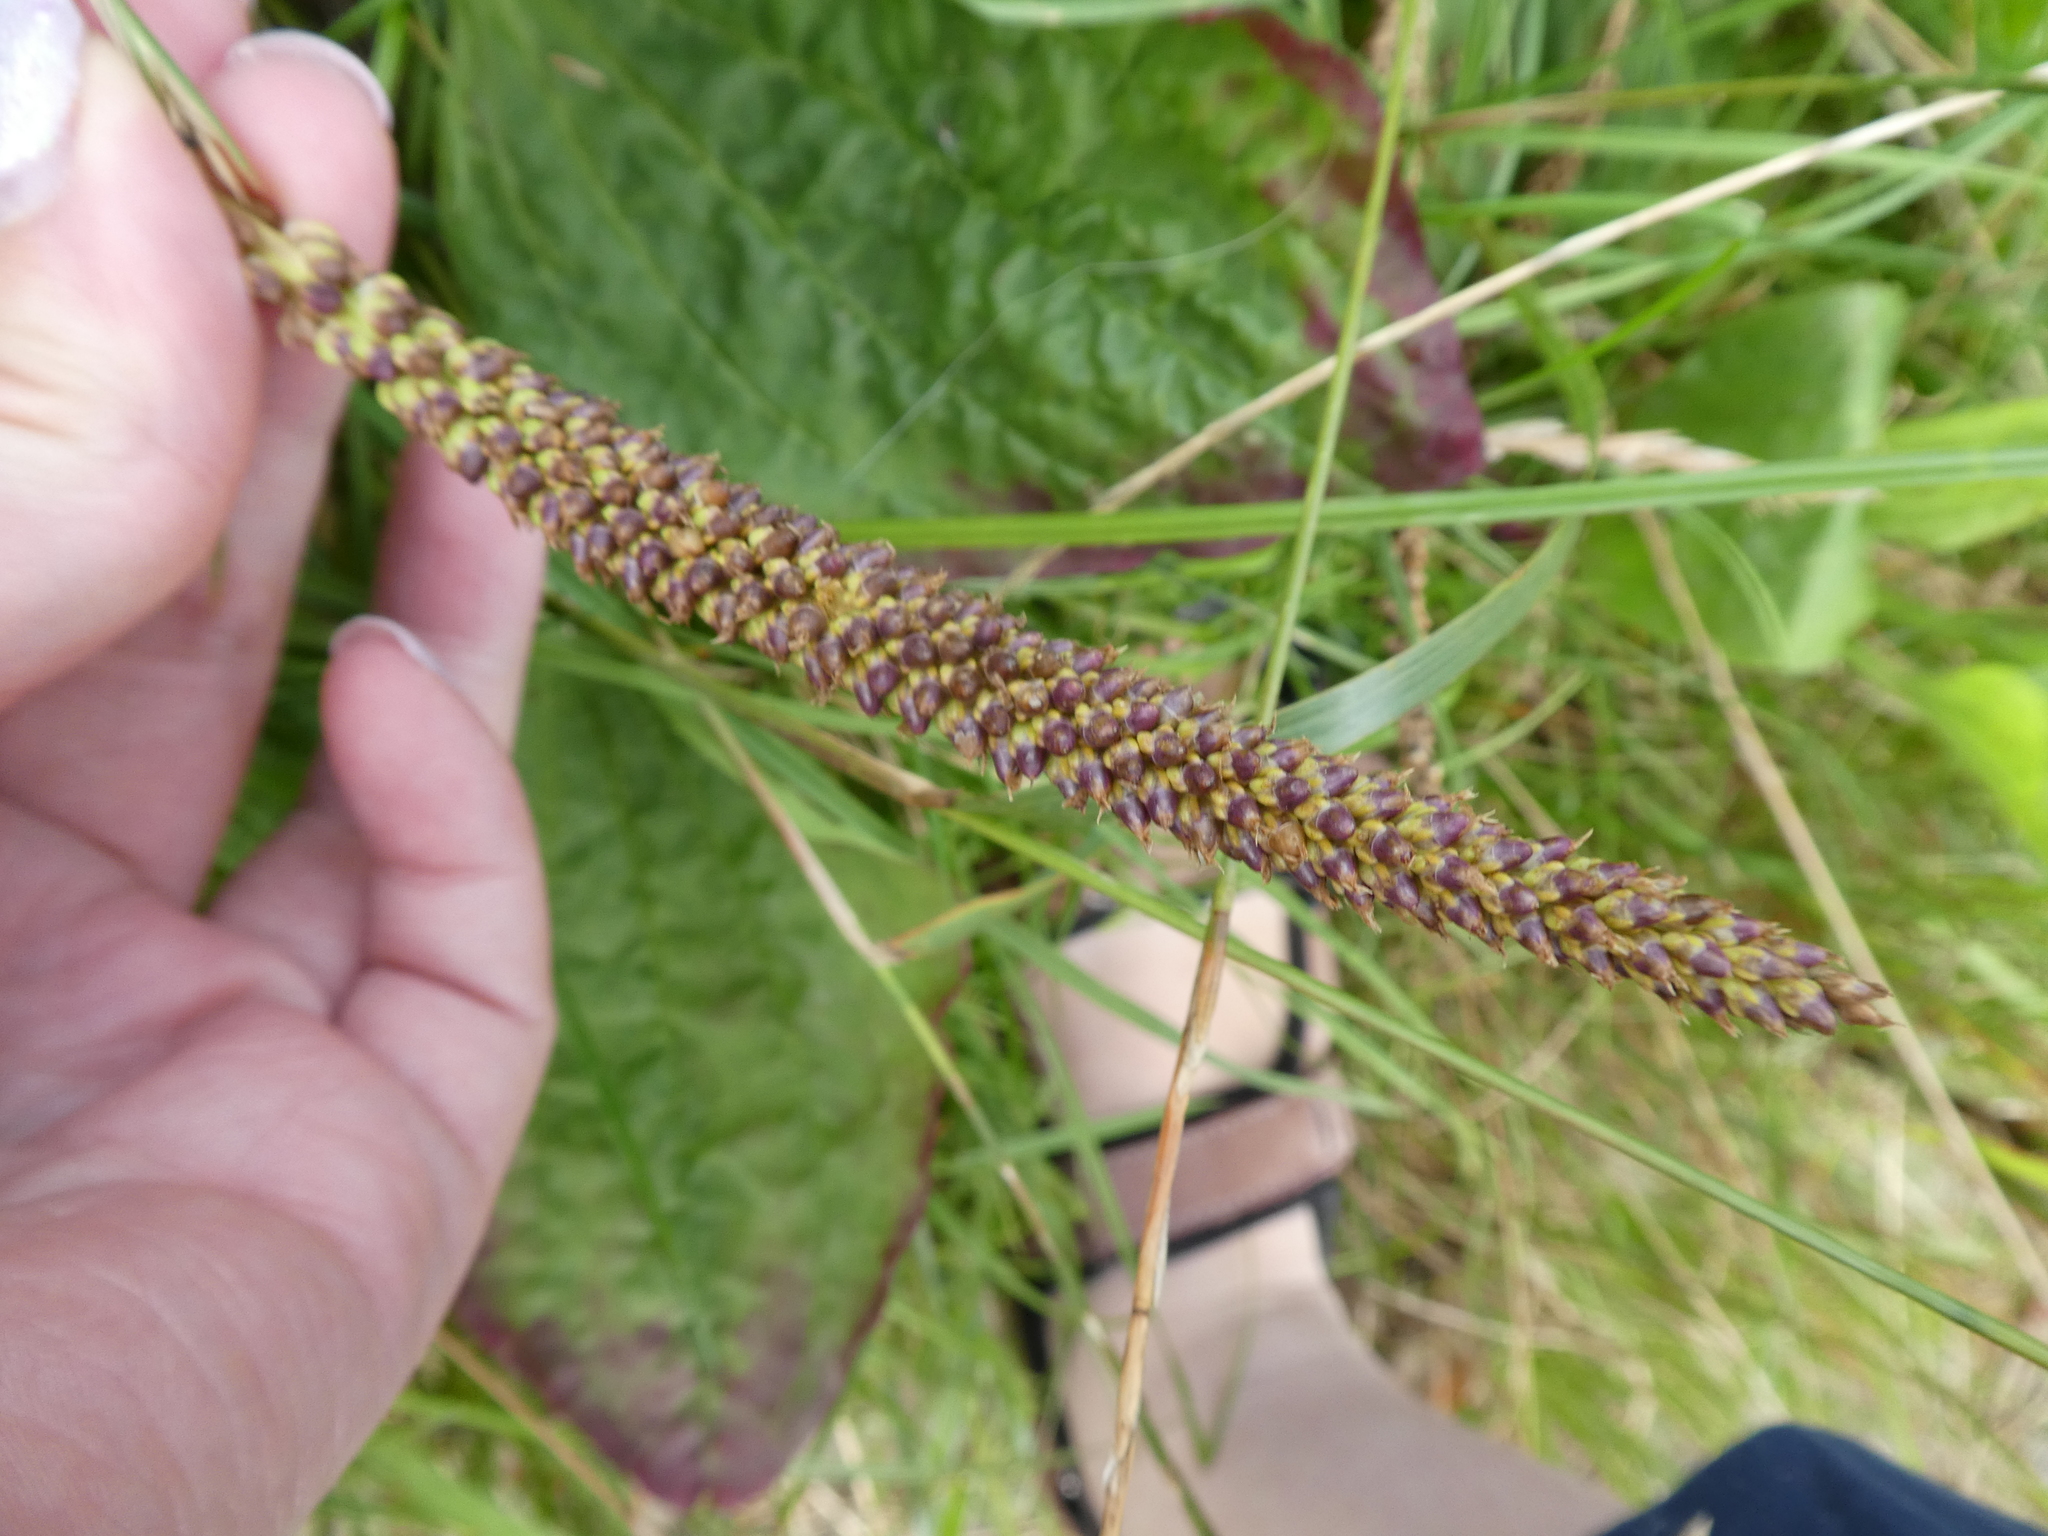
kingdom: Plantae
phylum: Tracheophyta
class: Magnoliopsida
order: Lamiales
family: Plantaginaceae
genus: Plantago
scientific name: Plantago major
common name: Common plantain
